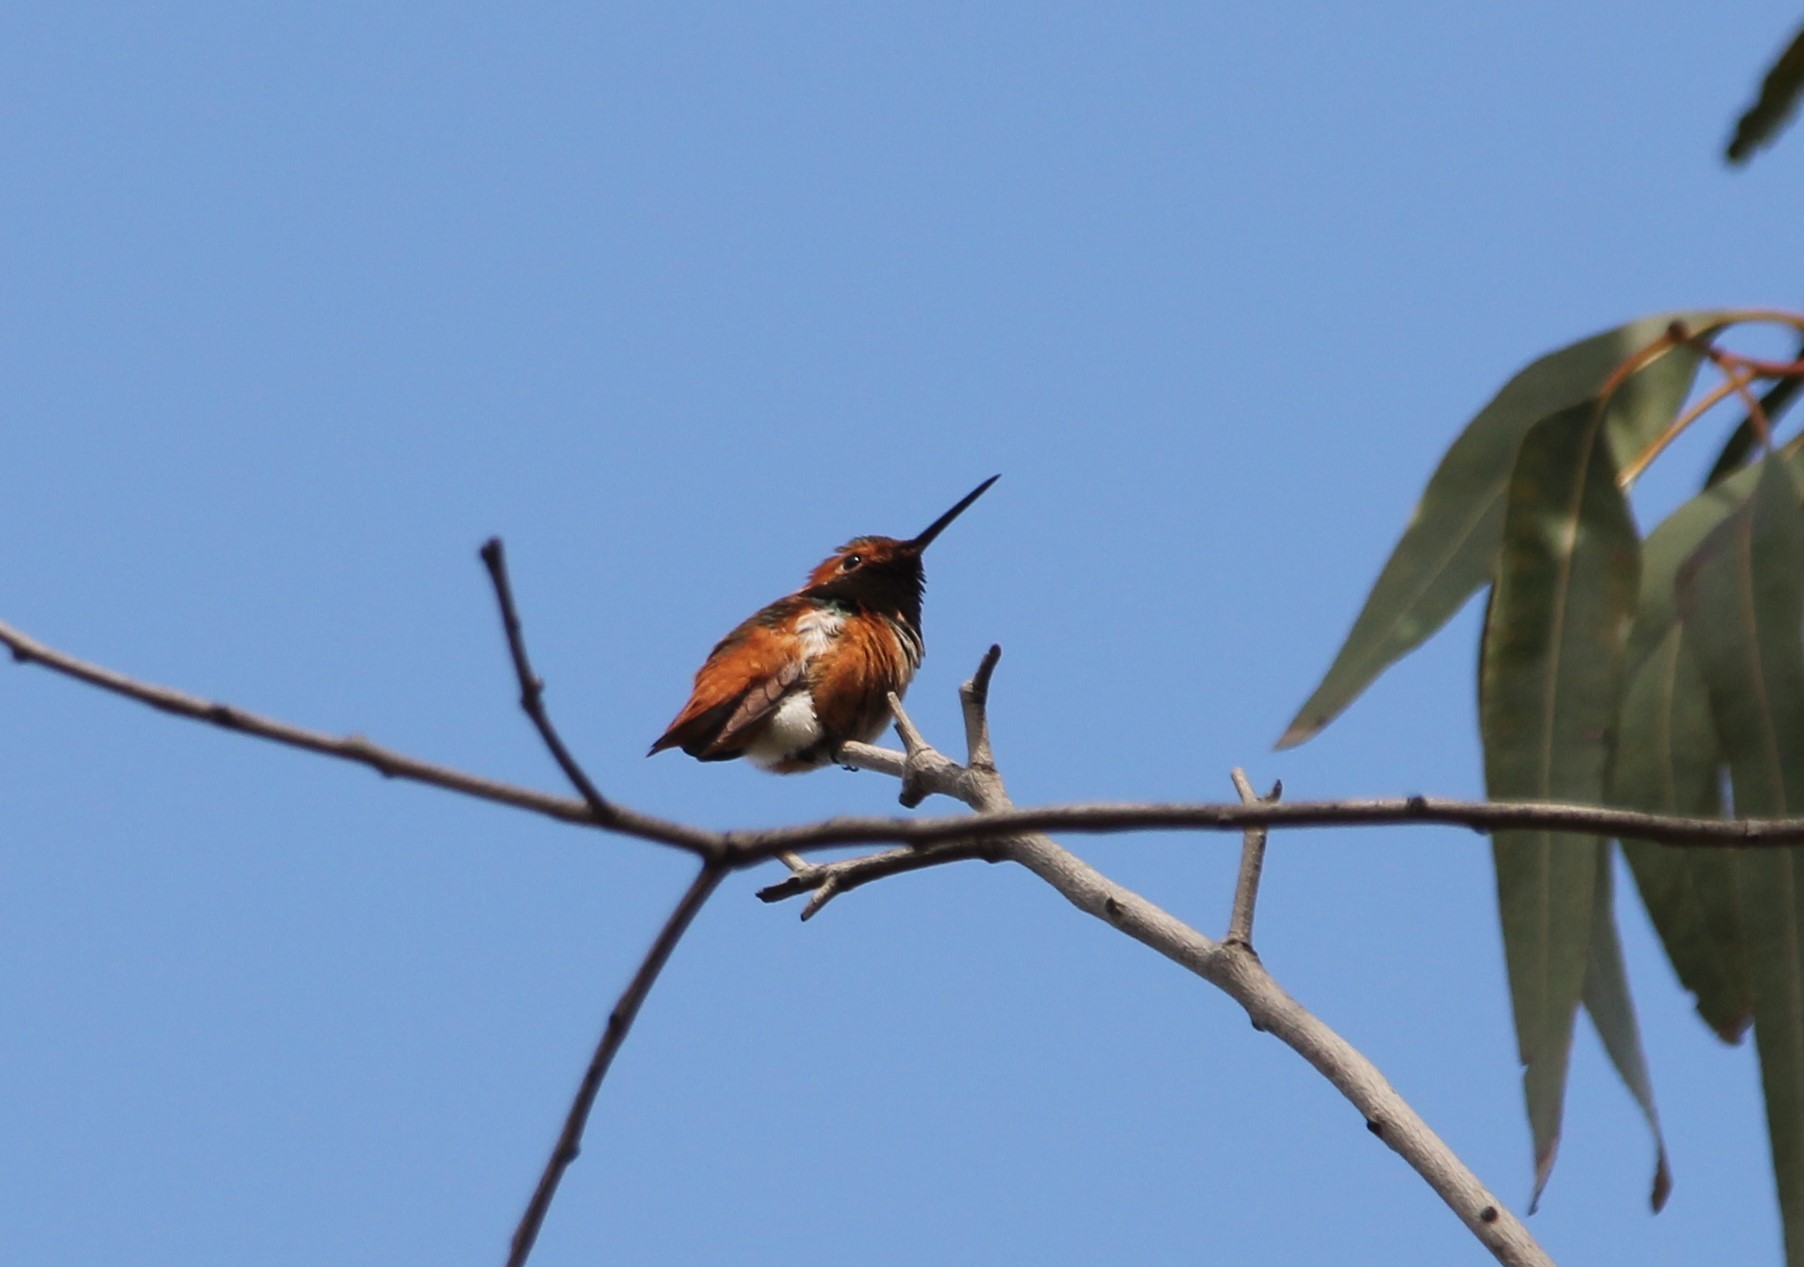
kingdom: Animalia
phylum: Chordata
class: Aves
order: Apodiformes
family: Trochilidae
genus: Selasphorus
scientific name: Selasphorus sasin
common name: Allen's hummingbird
